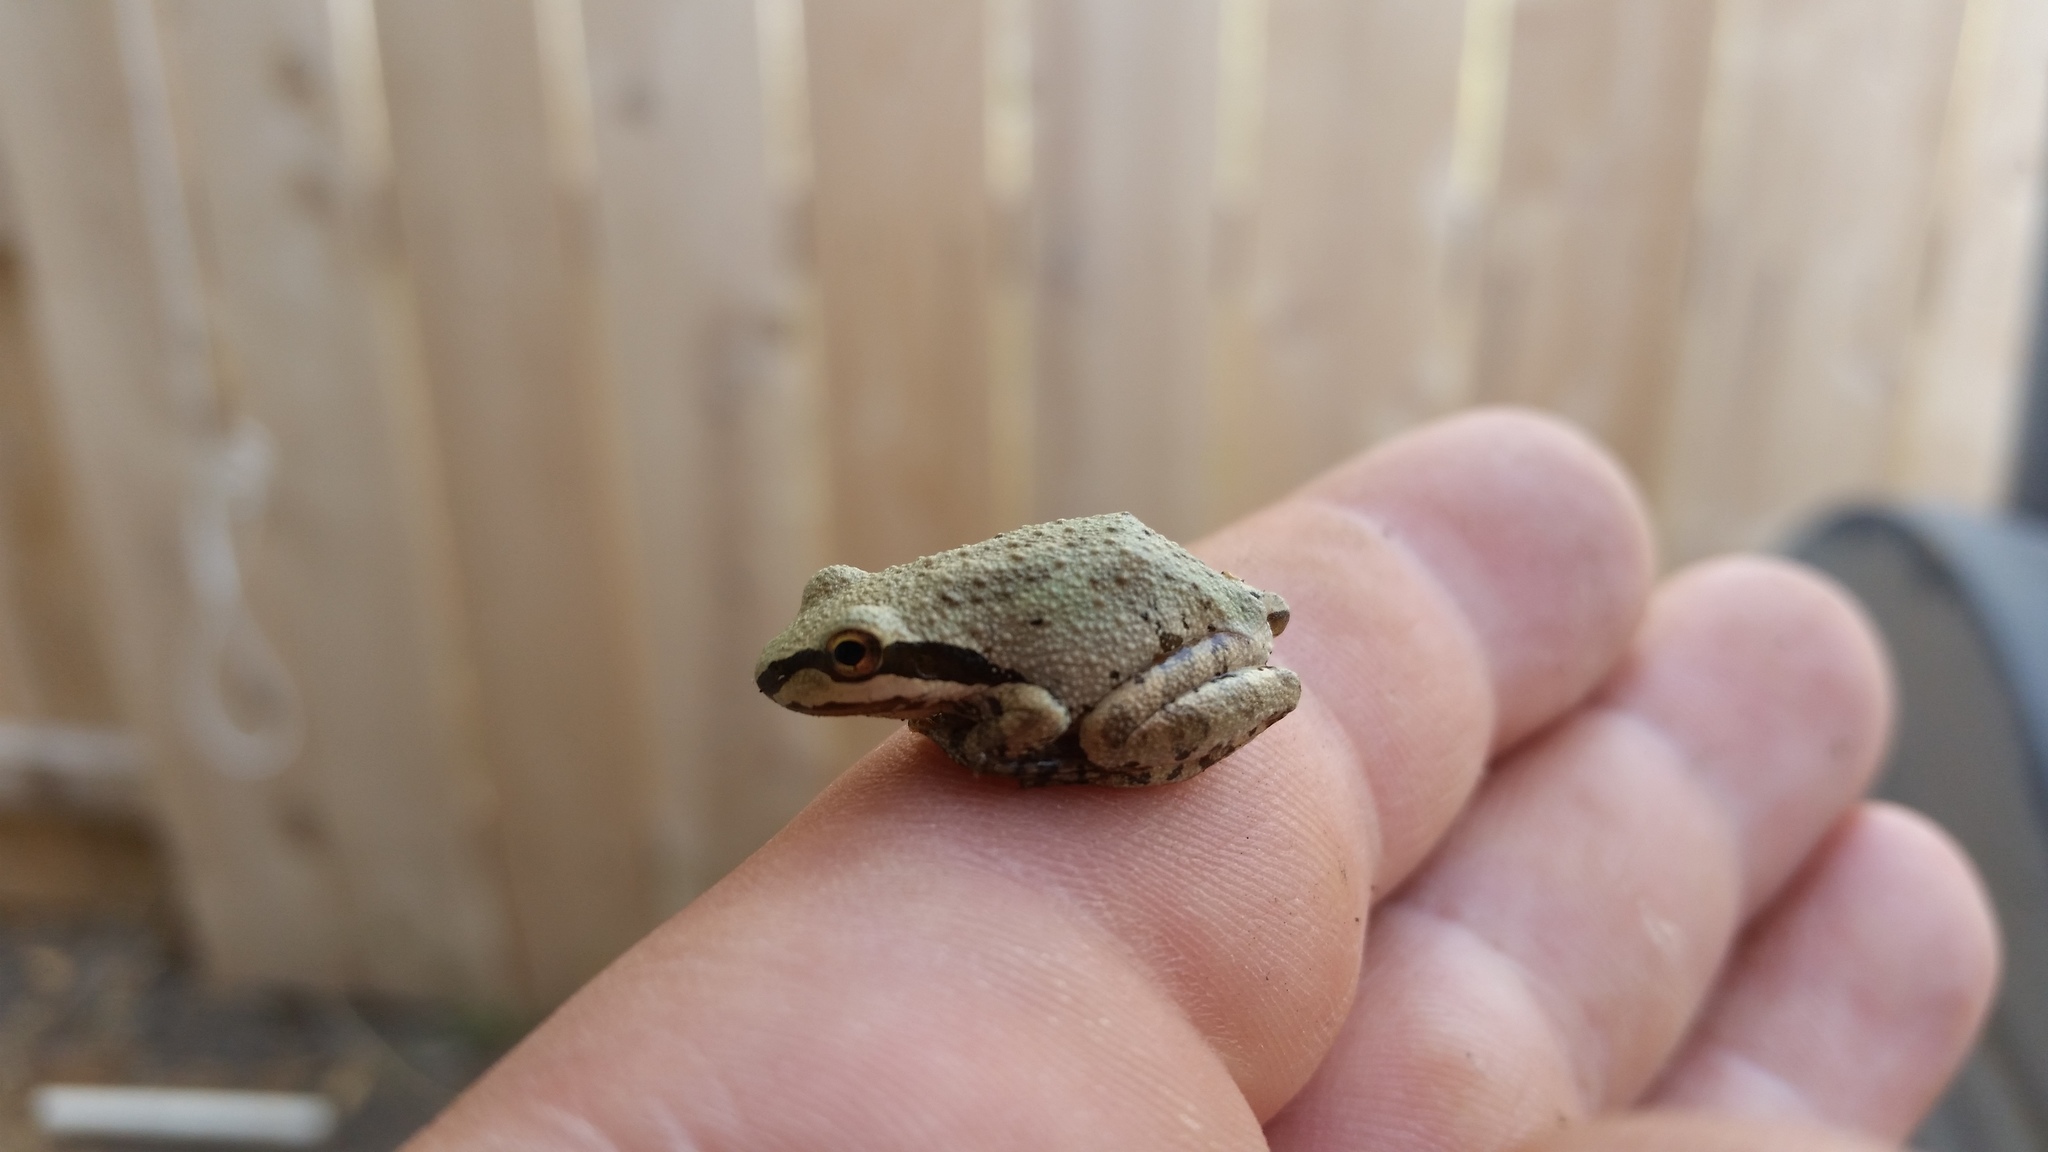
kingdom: Animalia
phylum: Chordata
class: Amphibia
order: Anura
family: Hylidae
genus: Pseudacris
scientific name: Pseudacris regilla
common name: Pacific chorus frog
